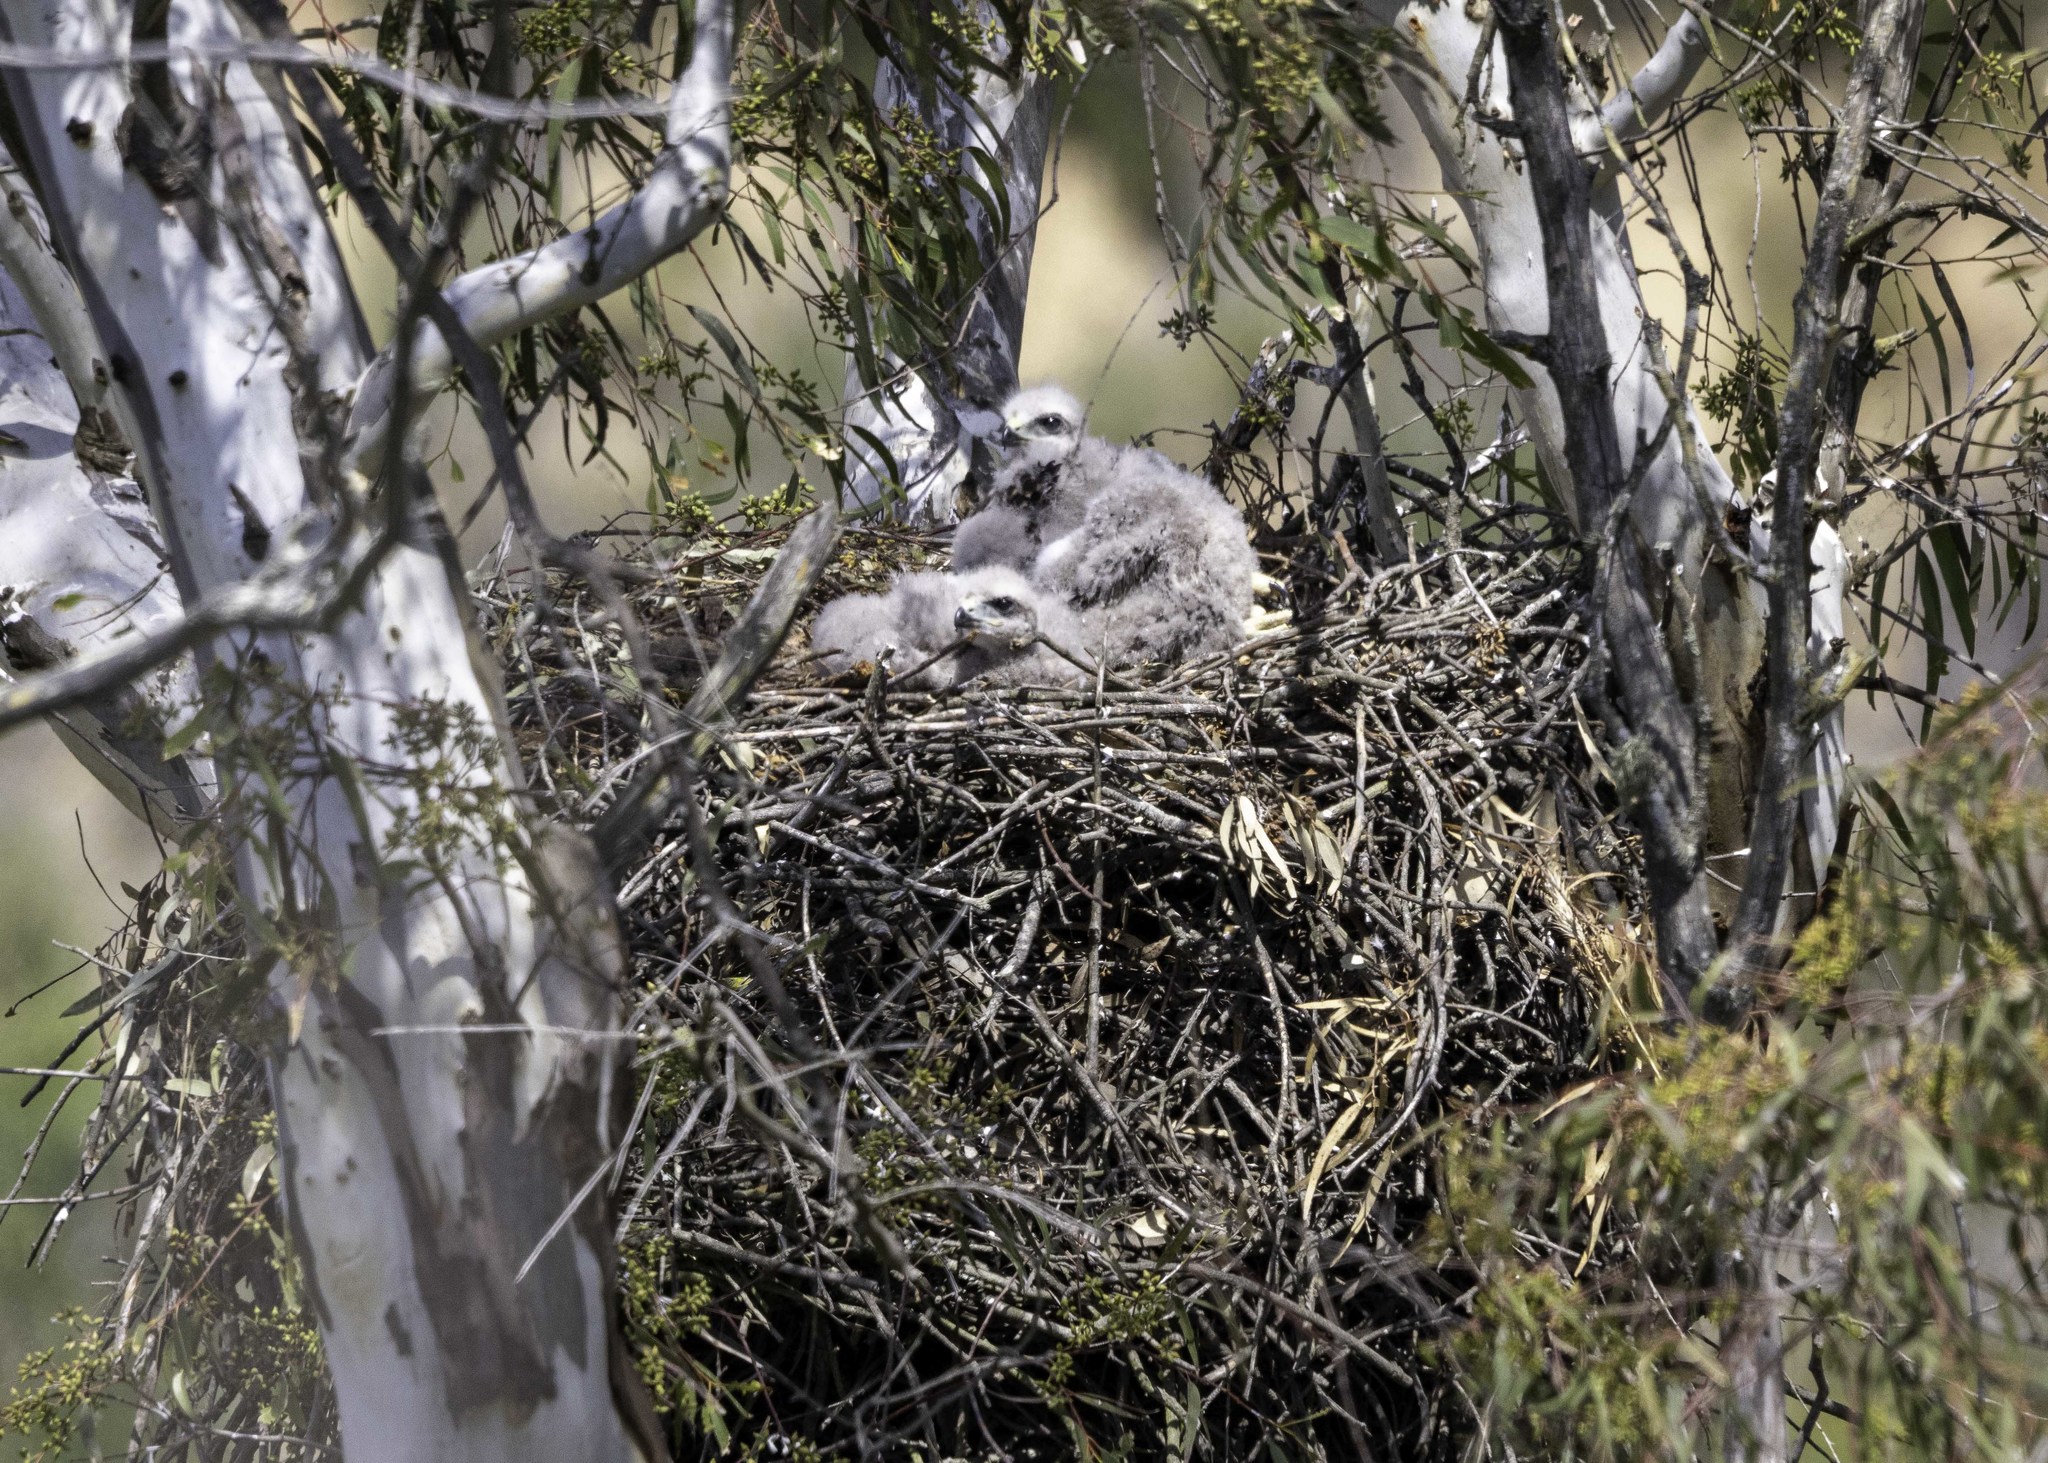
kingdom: Animalia
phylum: Chordata
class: Aves
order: Accipitriformes
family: Accipitridae
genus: Buteo
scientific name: Buteo jamaicensis
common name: Red-tailed hawk
